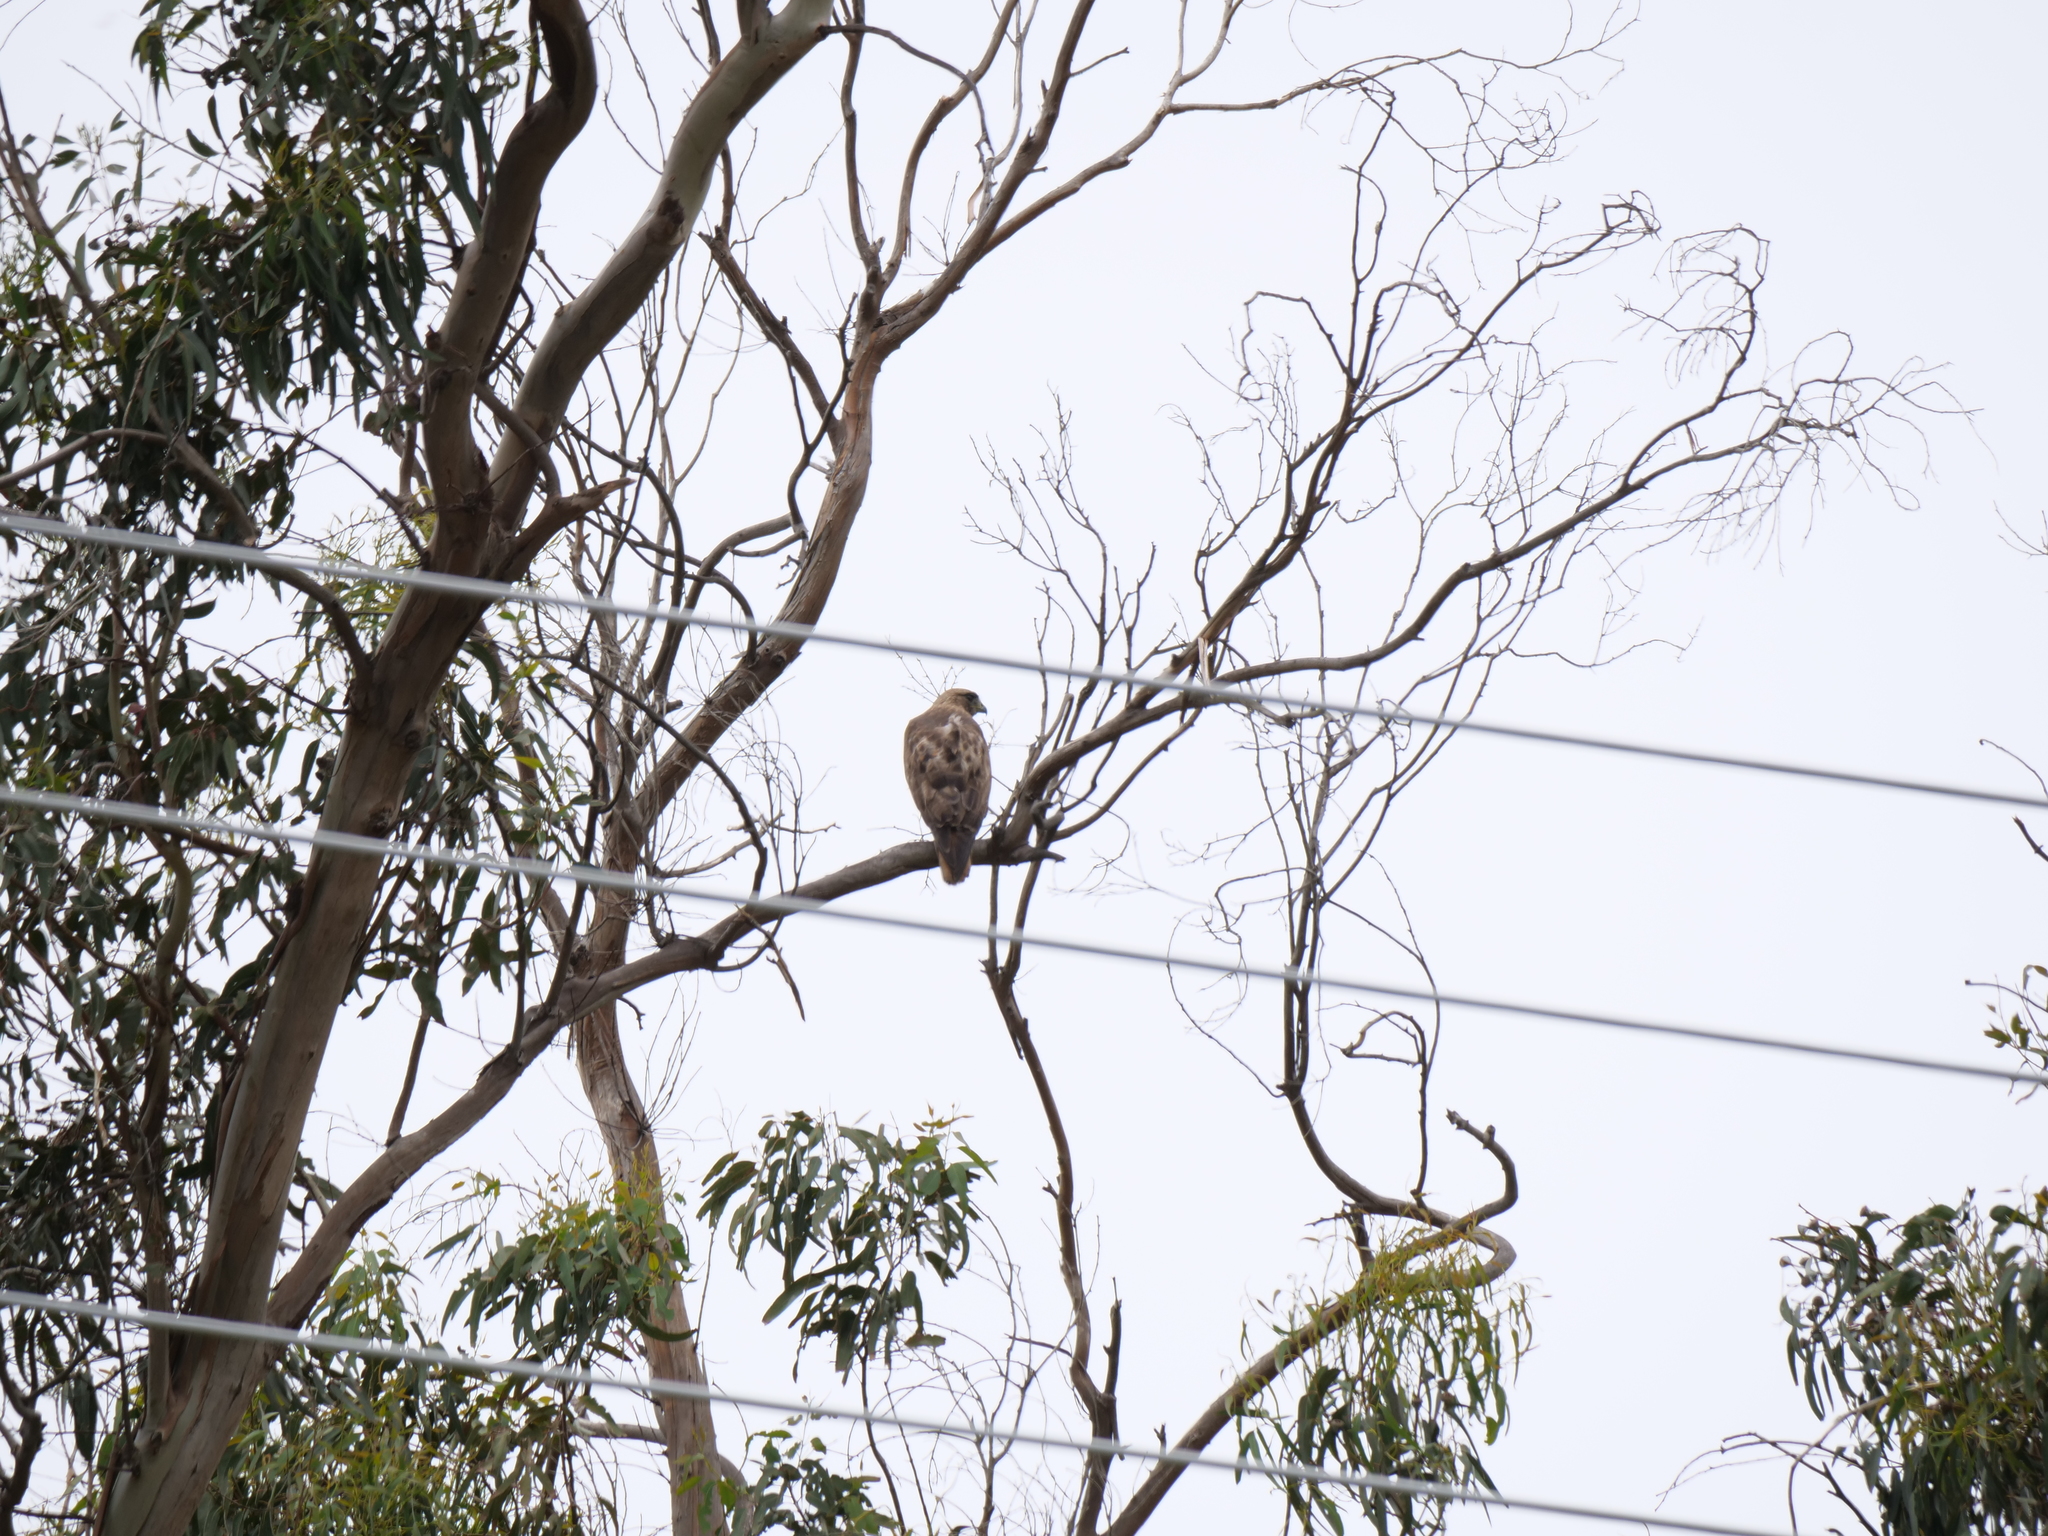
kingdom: Animalia
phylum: Chordata
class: Aves
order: Accipitriformes
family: Accipitridae
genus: Buteo
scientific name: Buteo jamaicensis
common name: Red-tailed hawk
